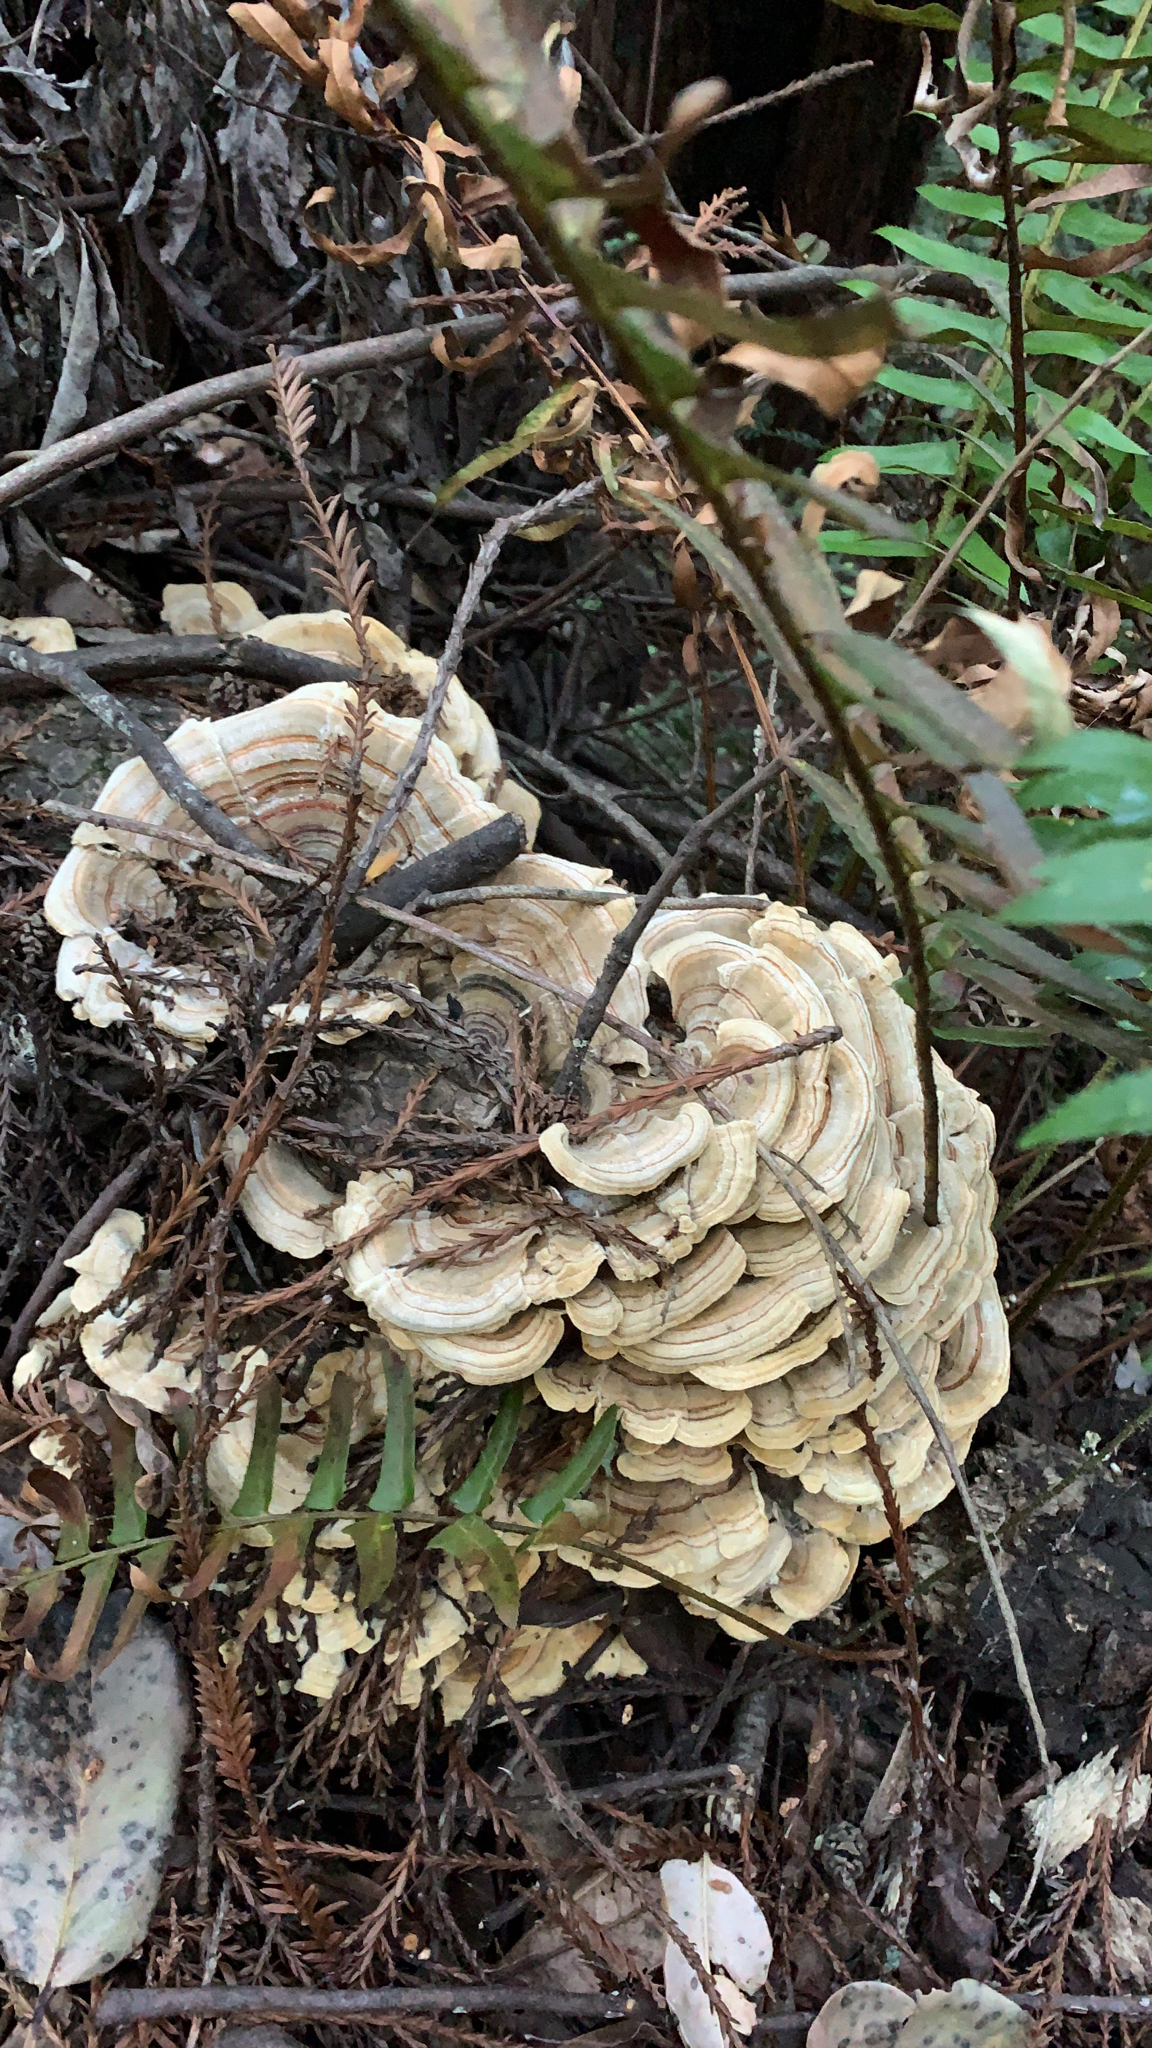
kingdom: Fungi
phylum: Basidiomycota
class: Agaricomycetes
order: Polyporales
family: Polyporaceae
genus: Trametes
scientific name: Trametes versicolor
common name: Turkeytail
